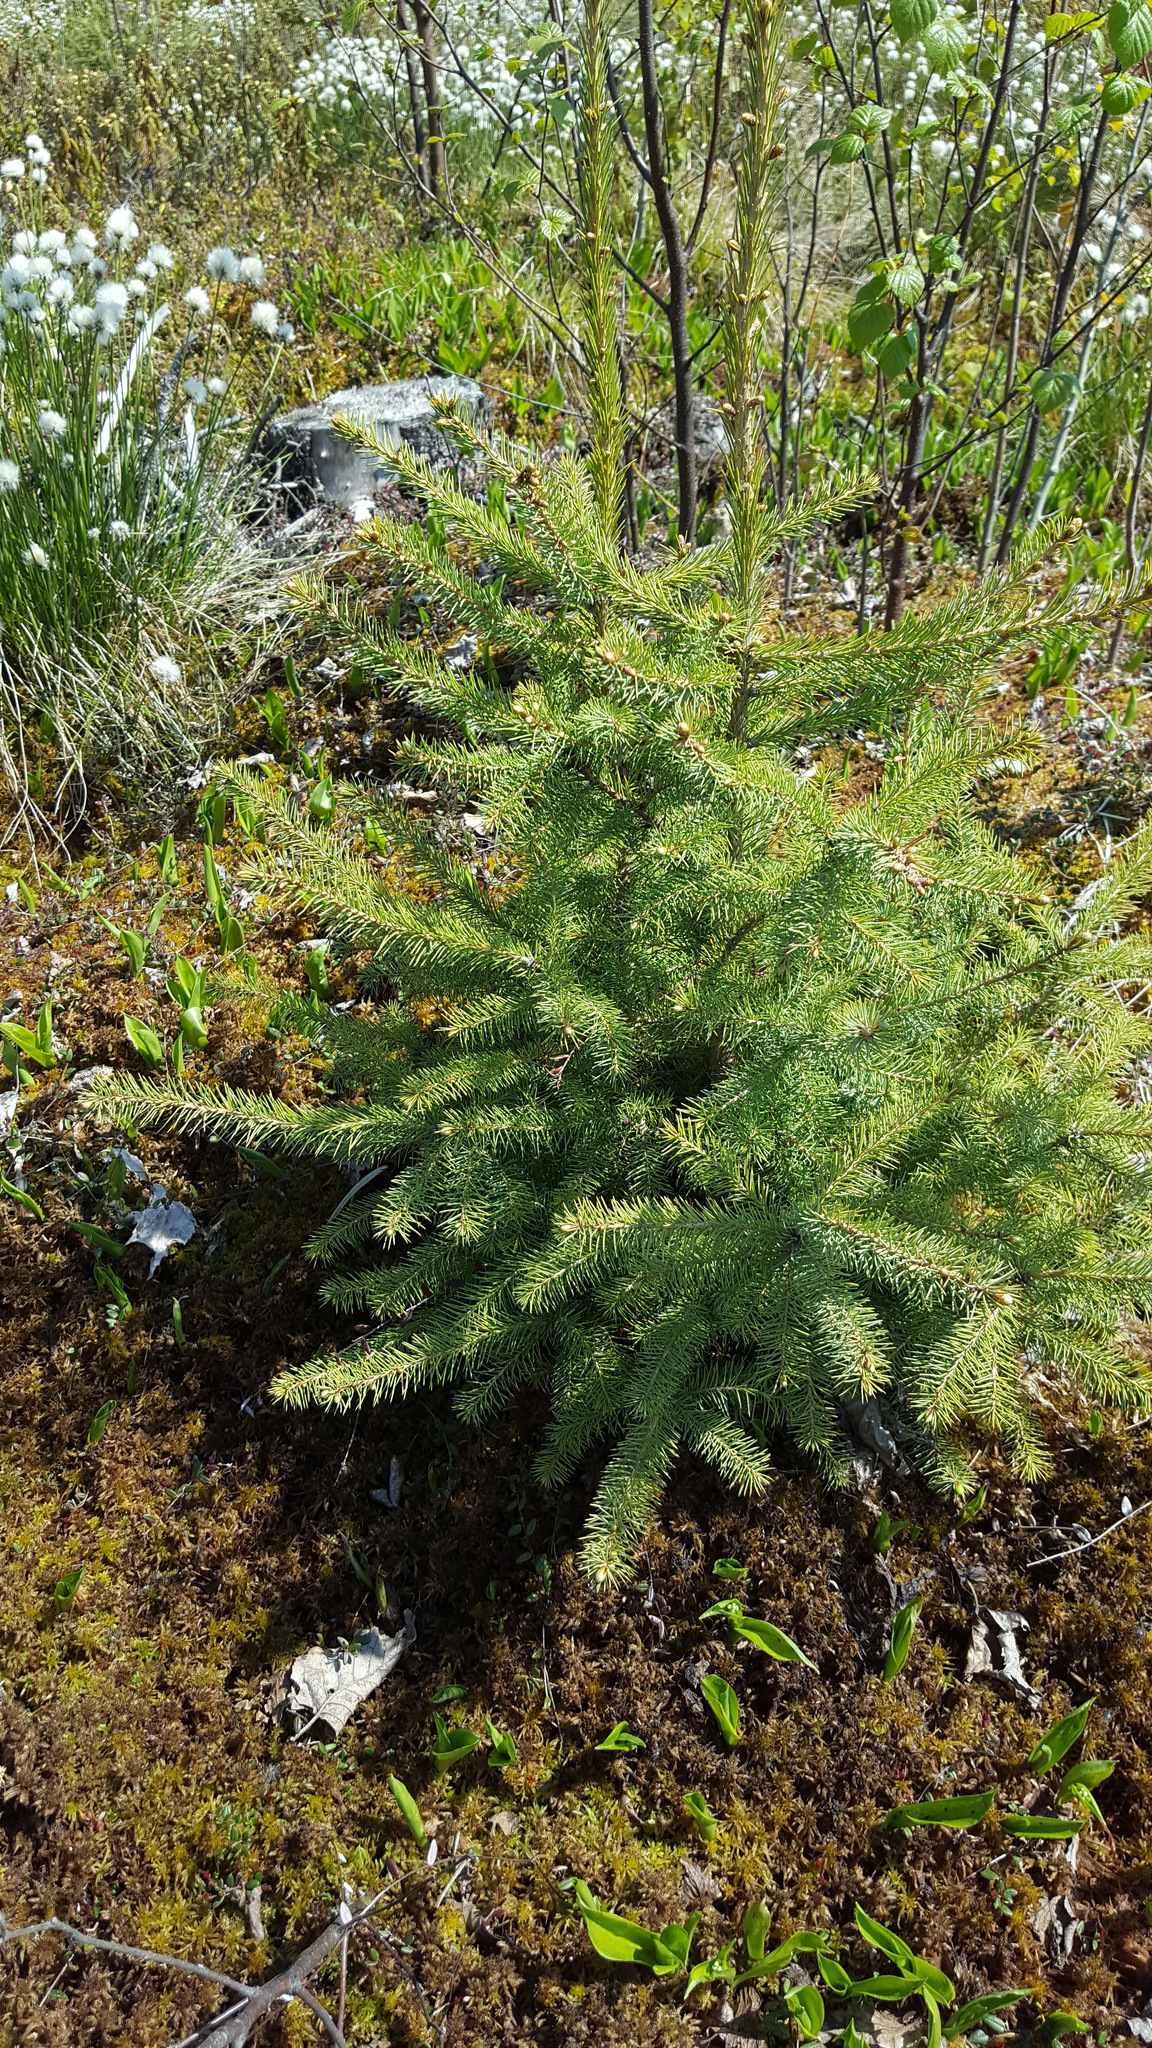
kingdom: Plantae
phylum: Tracheophyta
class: Pinopsida
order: Pinales
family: Pinaceae
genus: Picea
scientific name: Picea mariana
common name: Black spruce
